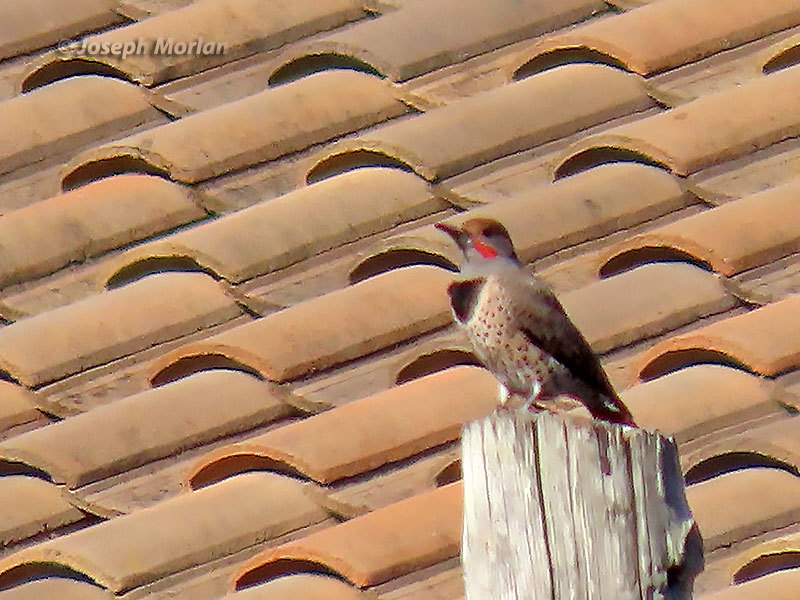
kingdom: Animalia
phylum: Chordata
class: Aves
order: Piciformes
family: Picidae
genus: Colaptes
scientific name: Colaptes auratus
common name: Northern flicker
